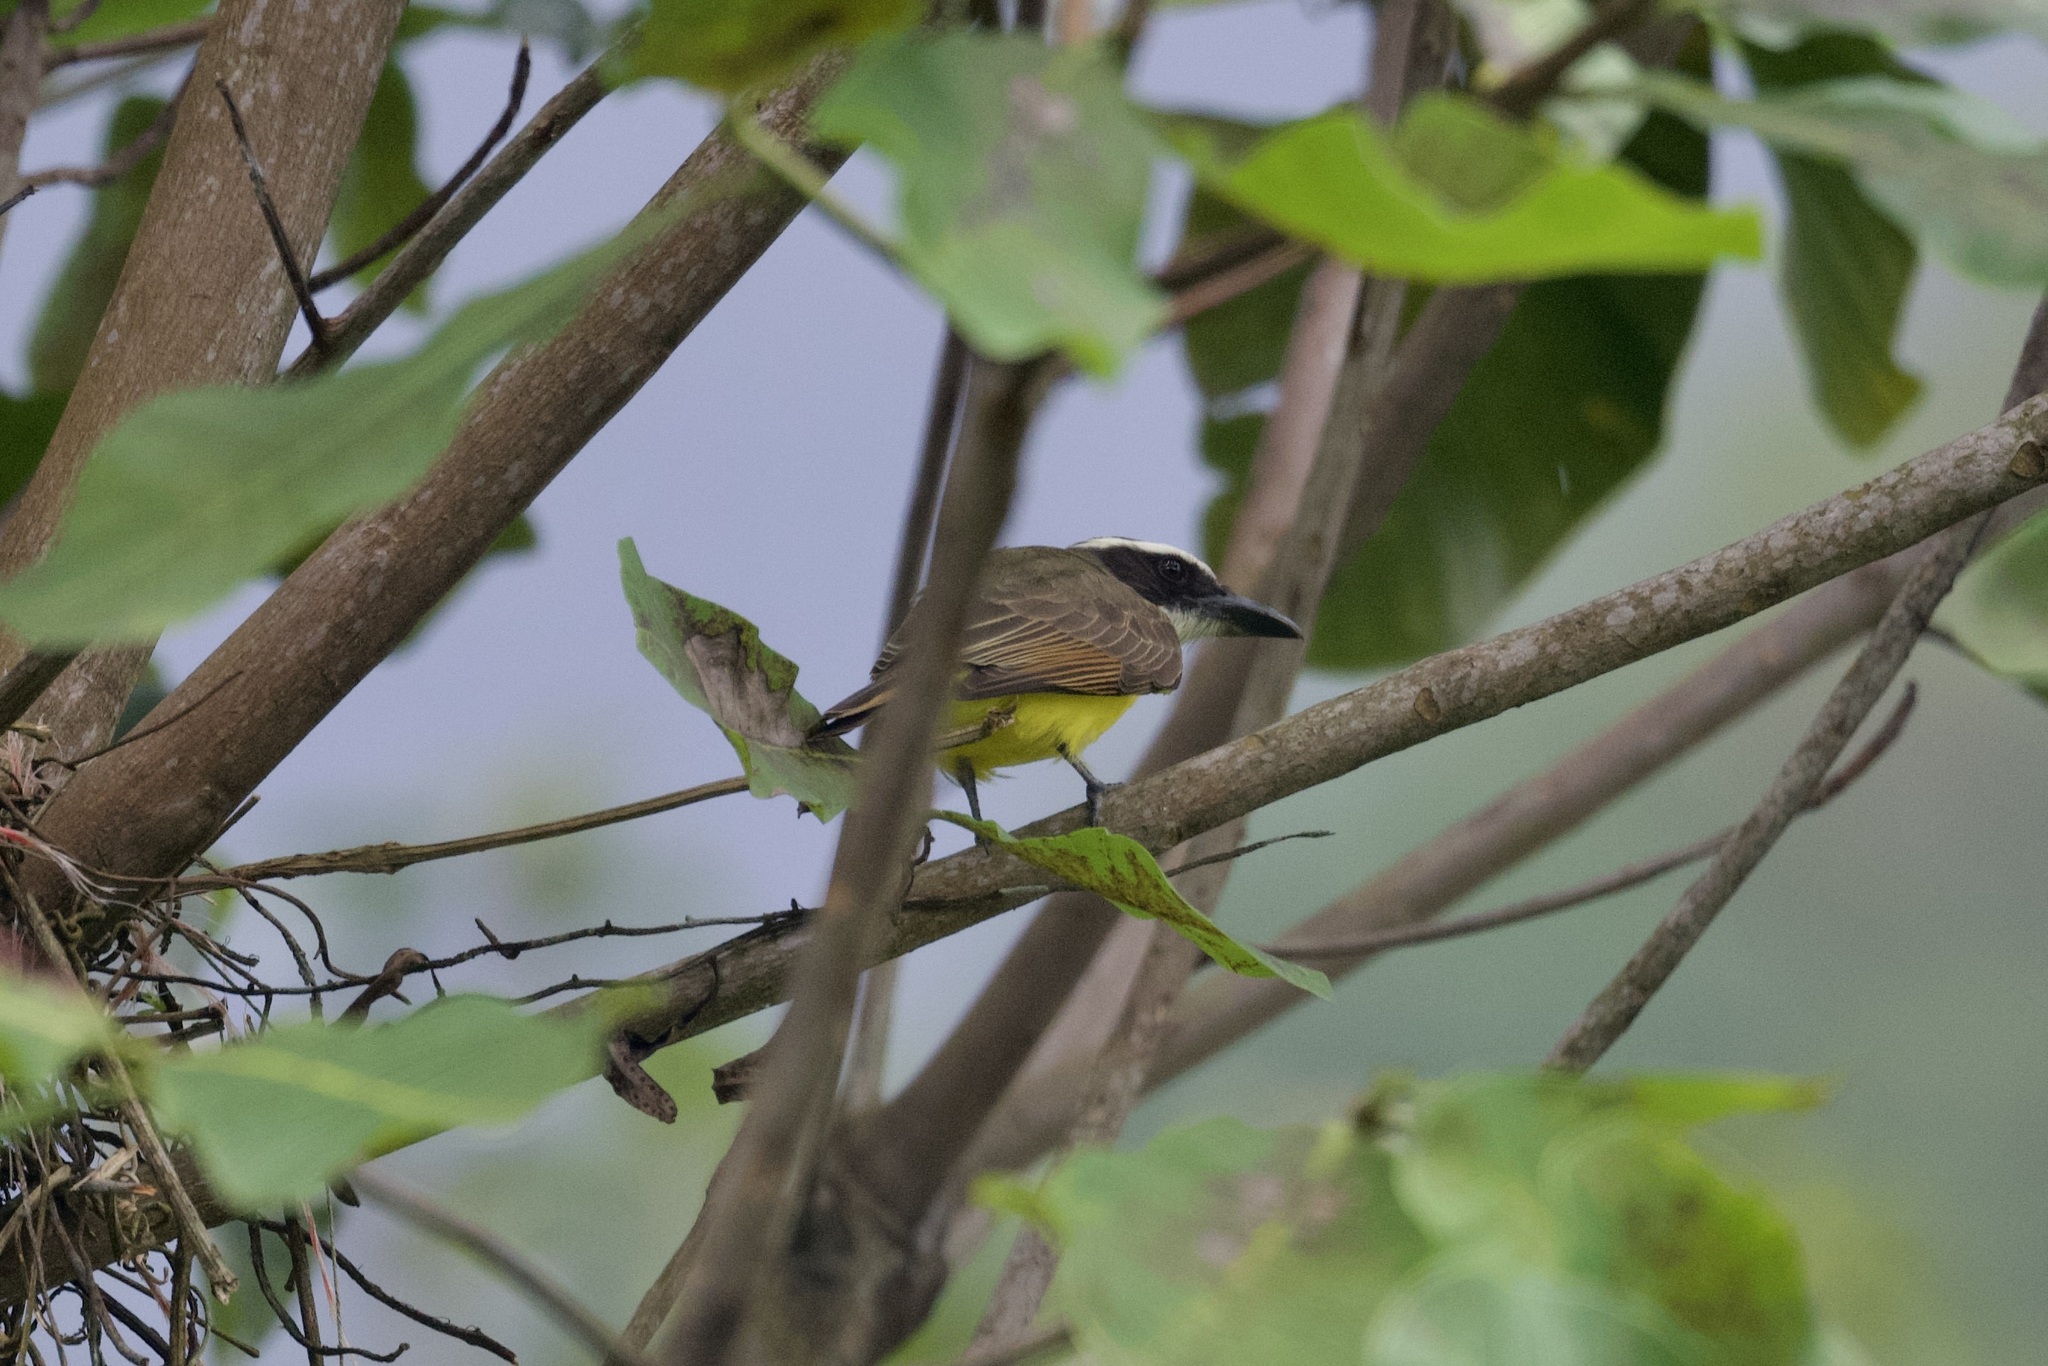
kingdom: Animalia
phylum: Chordata
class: Aves
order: Passeriformes
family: Tyrannidae
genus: Megarynchus
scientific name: Megarynchus pitangua
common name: Boat-billed flycatcher
